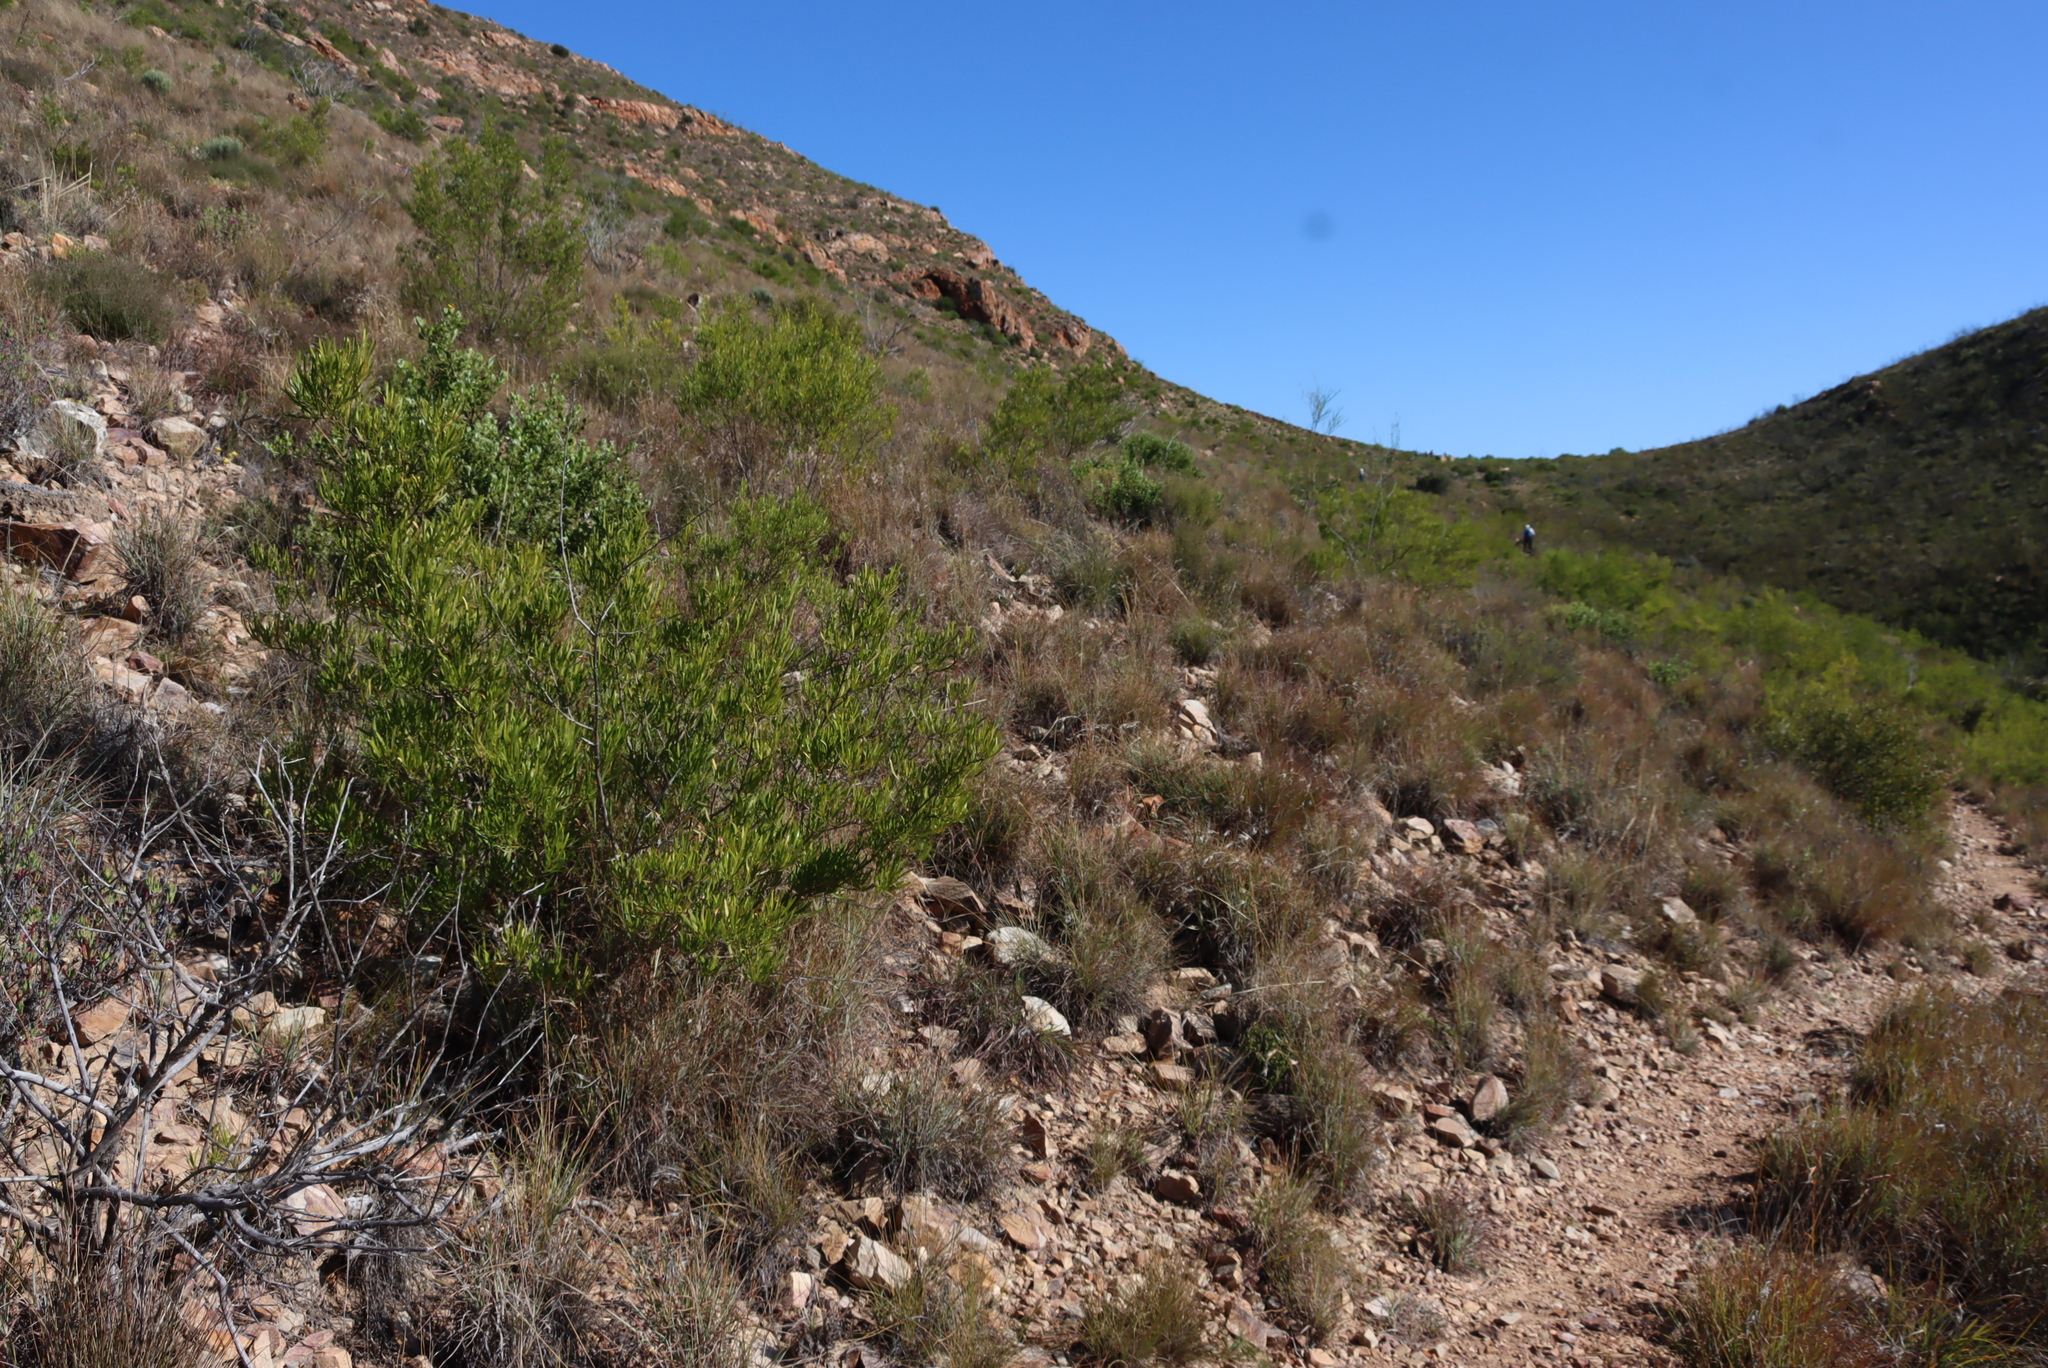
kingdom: Plantae
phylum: Tracheophyta
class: Magnoliopsida
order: Sapindales
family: Sapindaceae
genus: Dodonaea
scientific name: Dodonaea viscosa
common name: Hopbush
